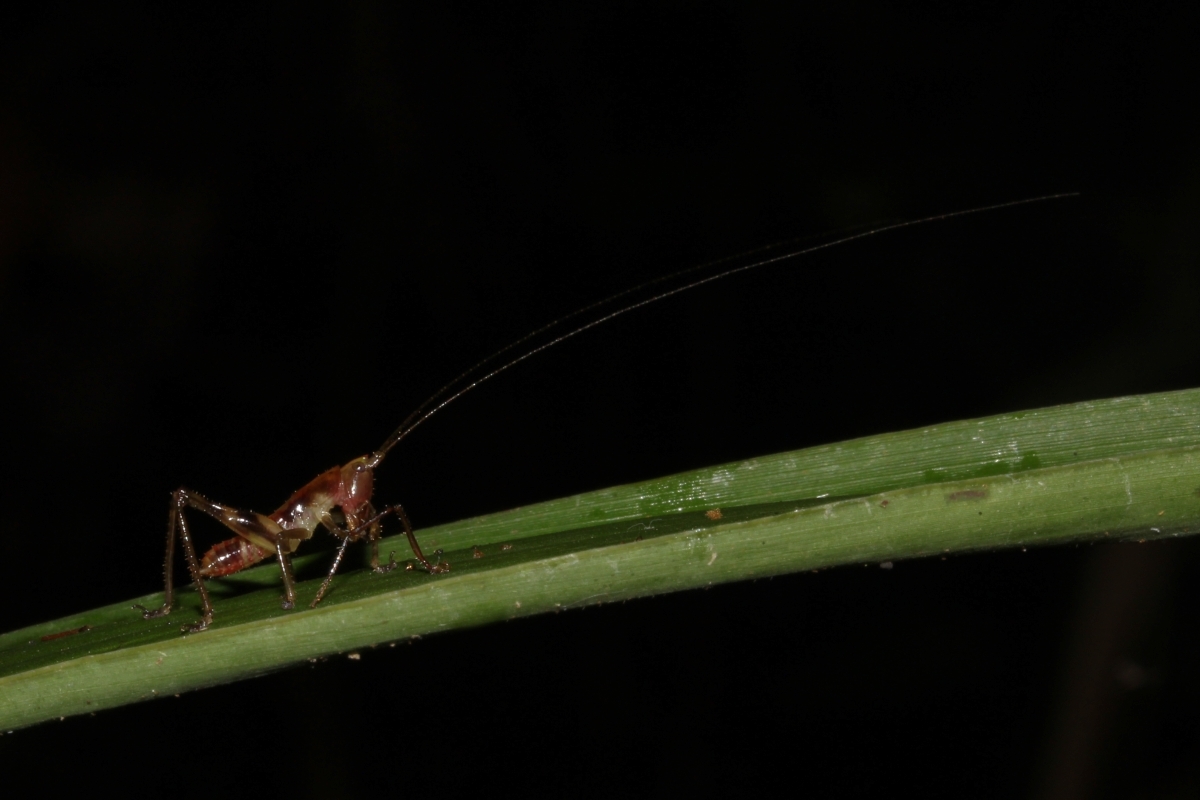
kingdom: Animalia
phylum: Arthropoda
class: Insecta
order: Orthoptera
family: Conocephalidae
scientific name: Conocephalidae
